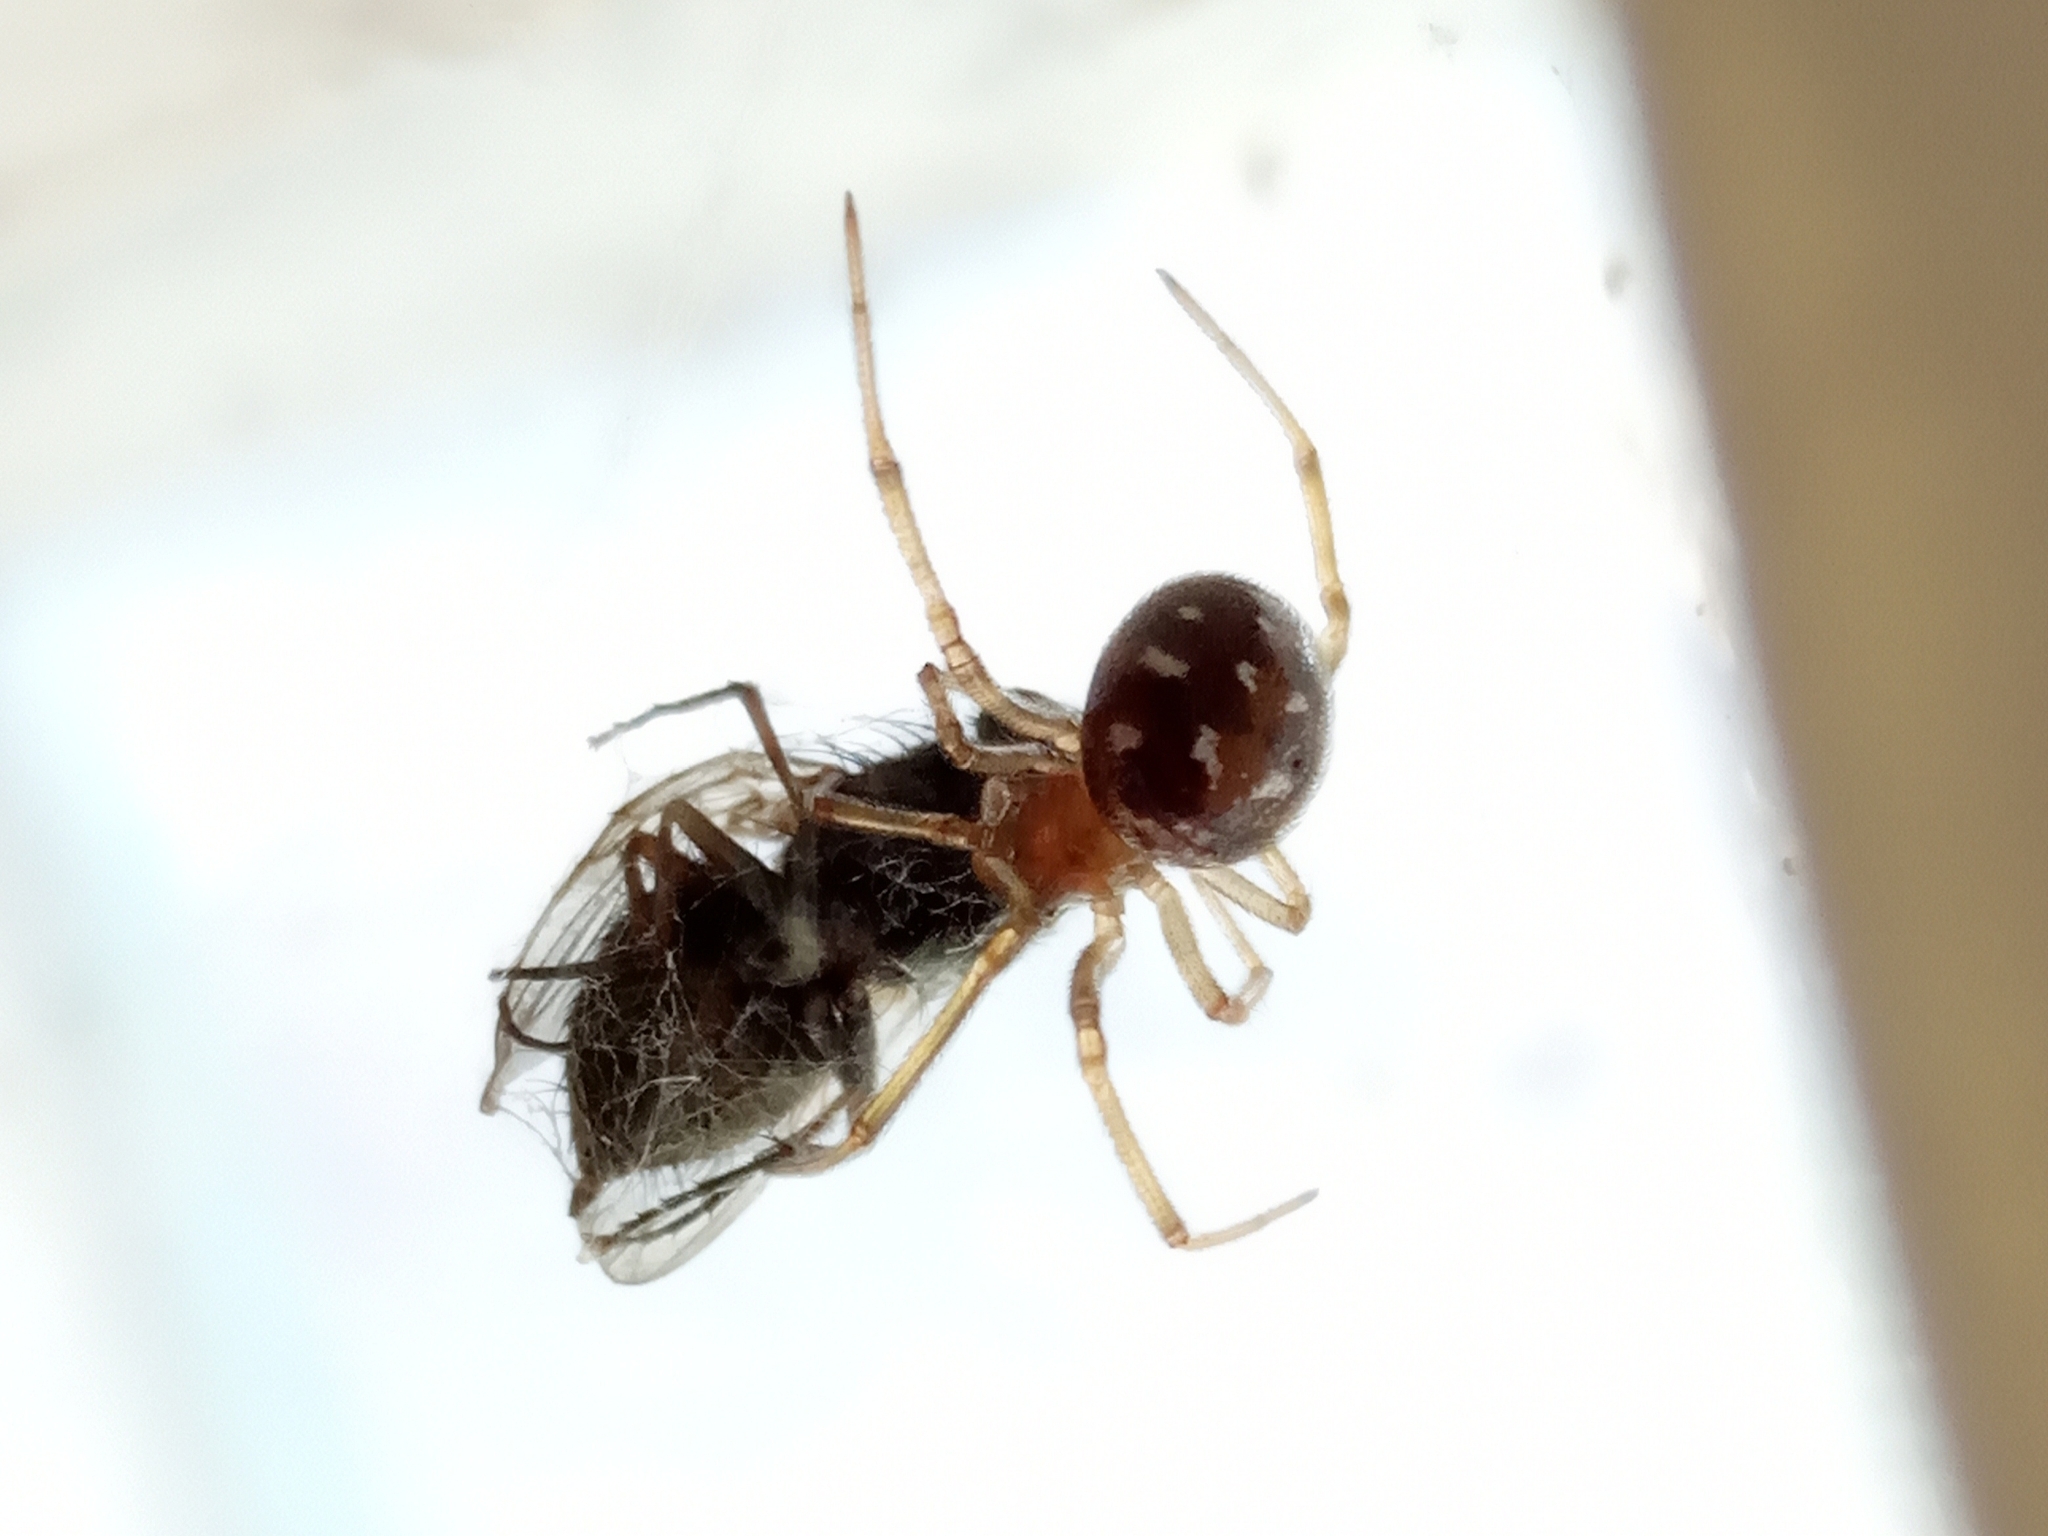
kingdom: Animalia
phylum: Arthropoda
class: Arachnida
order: Araneae
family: Theridiidae
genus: Steatoda
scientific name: Steatoda triangulosa
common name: Triangulate bud spider
